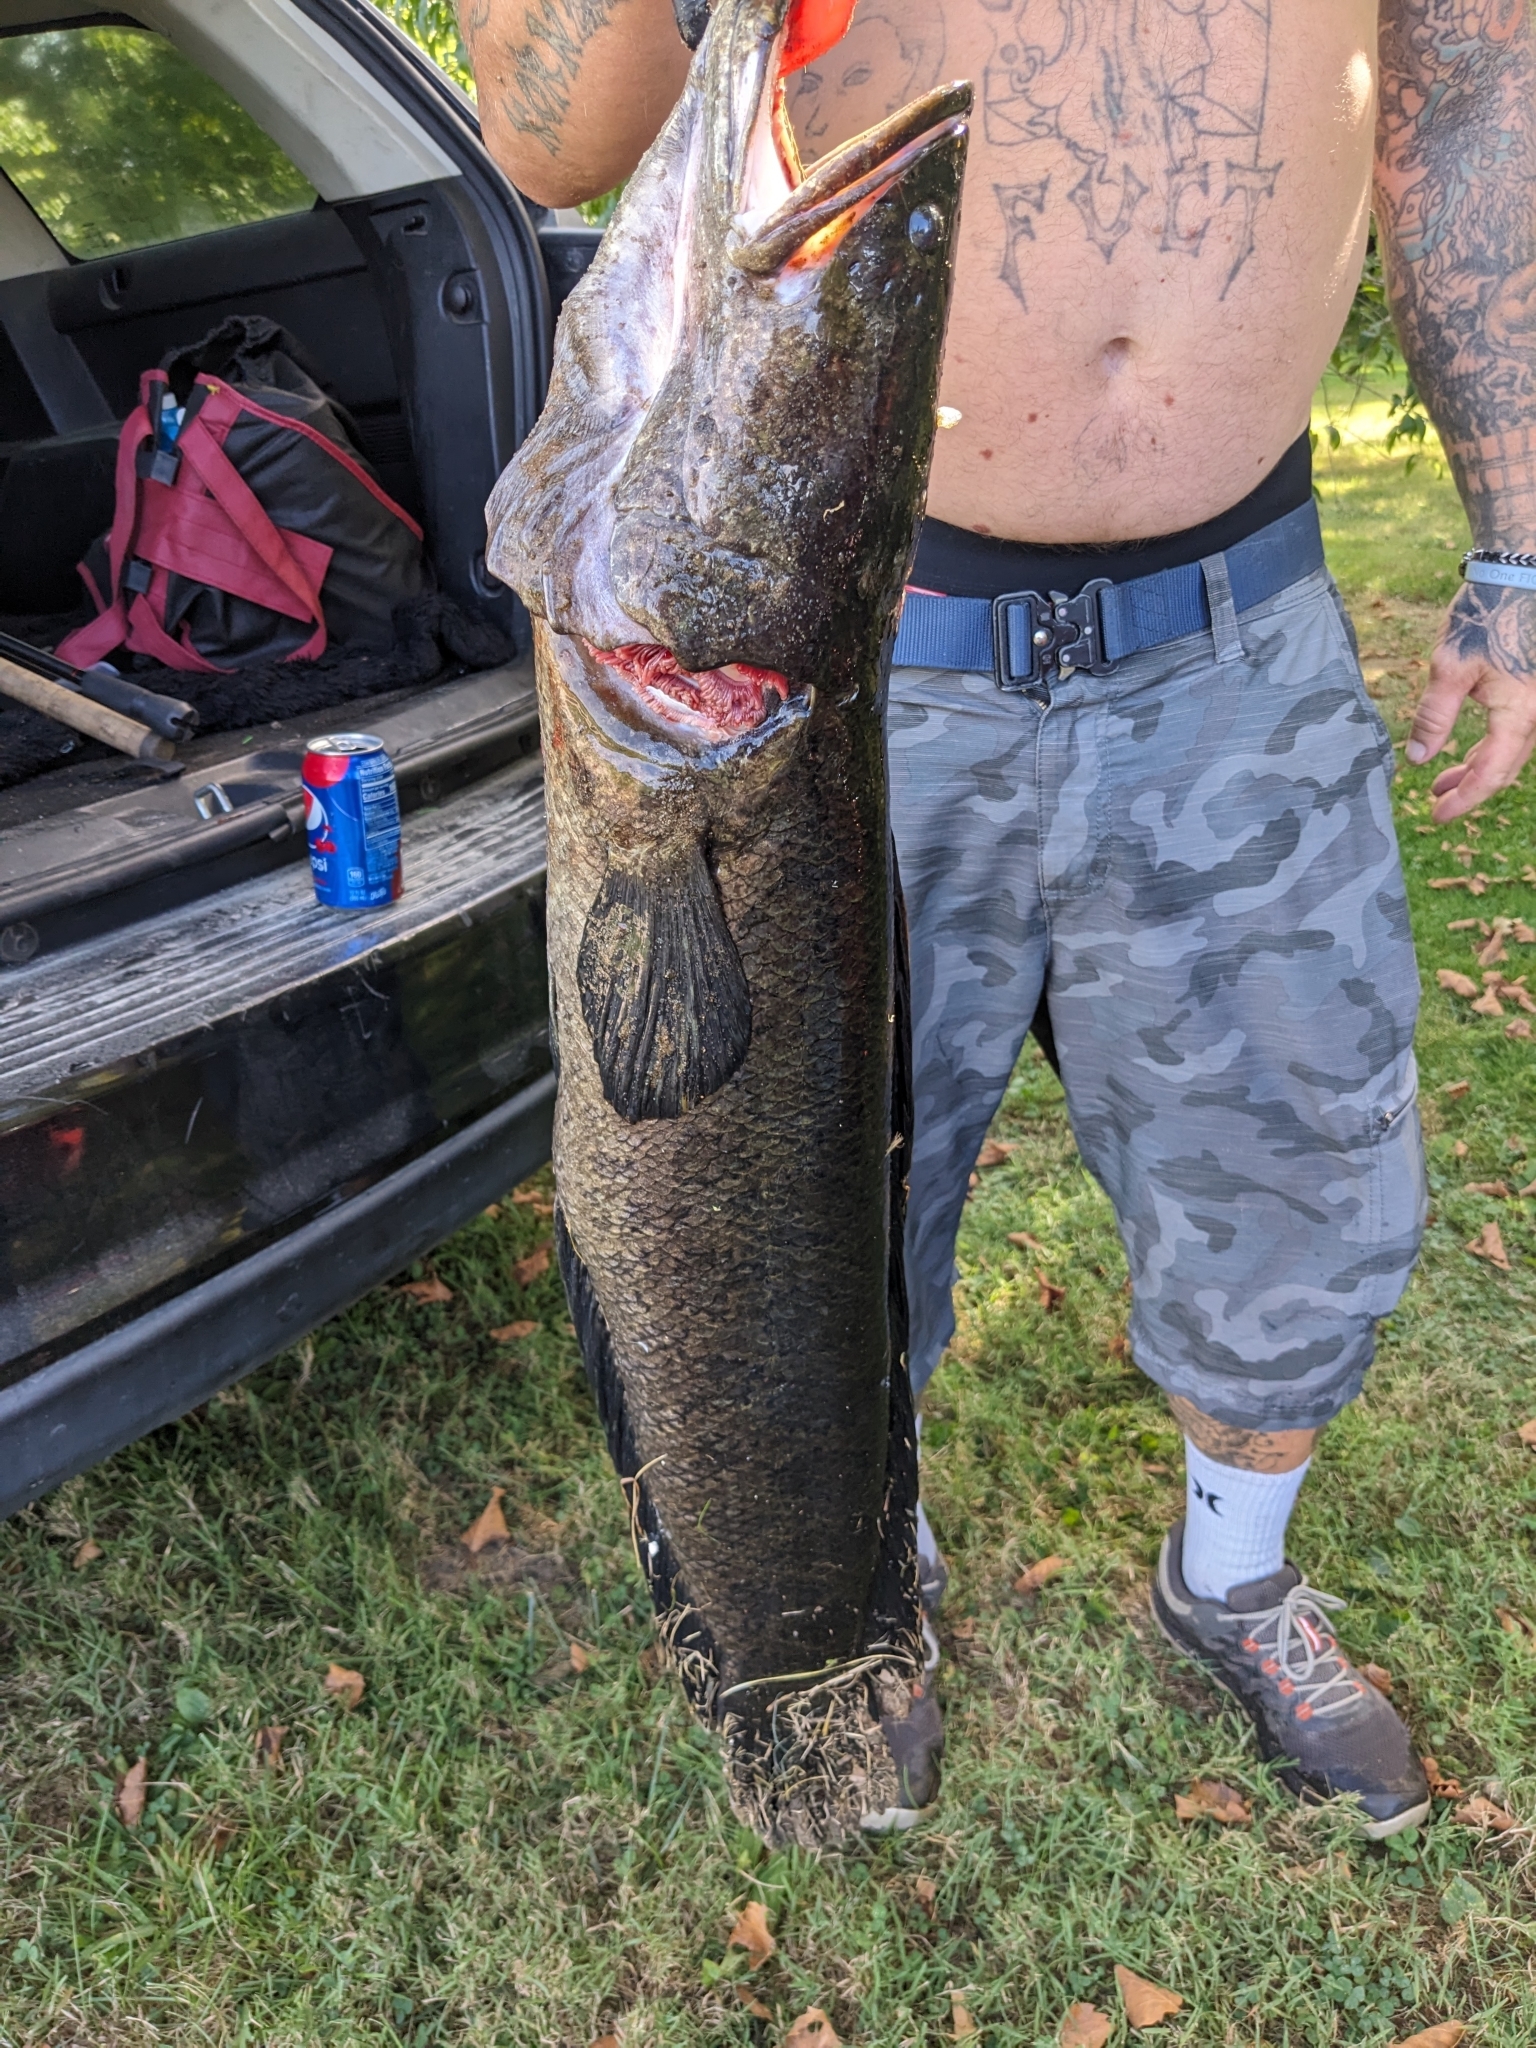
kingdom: Animalia
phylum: Chordata
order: Perciformes
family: Channidae
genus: Channa
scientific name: Channa argus
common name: Northern snakehead
